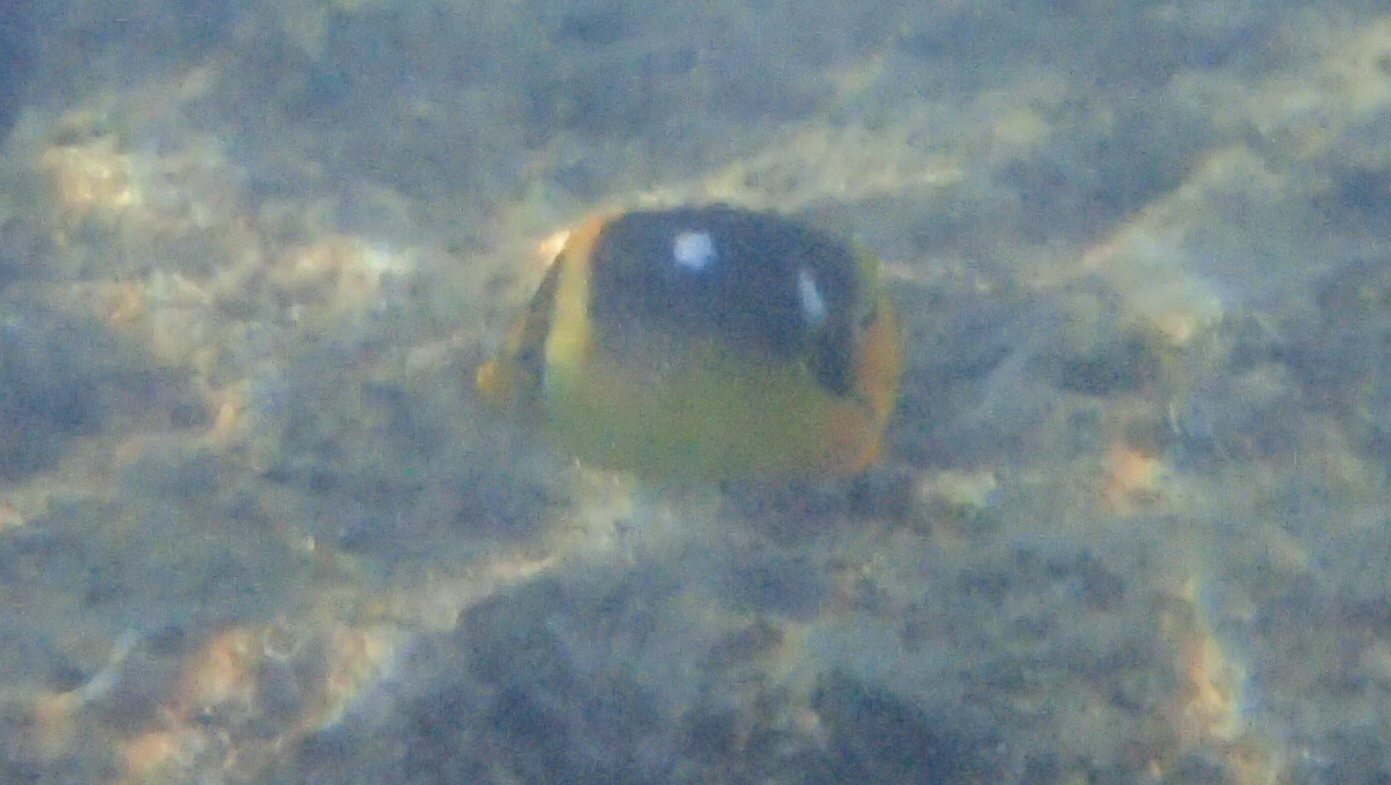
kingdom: Animalia
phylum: Chordata
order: Perciformes
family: Chaetodontidae
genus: Chaetodon
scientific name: Chaetodon quadrimaculatus
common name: Fourspot butterflyfish
